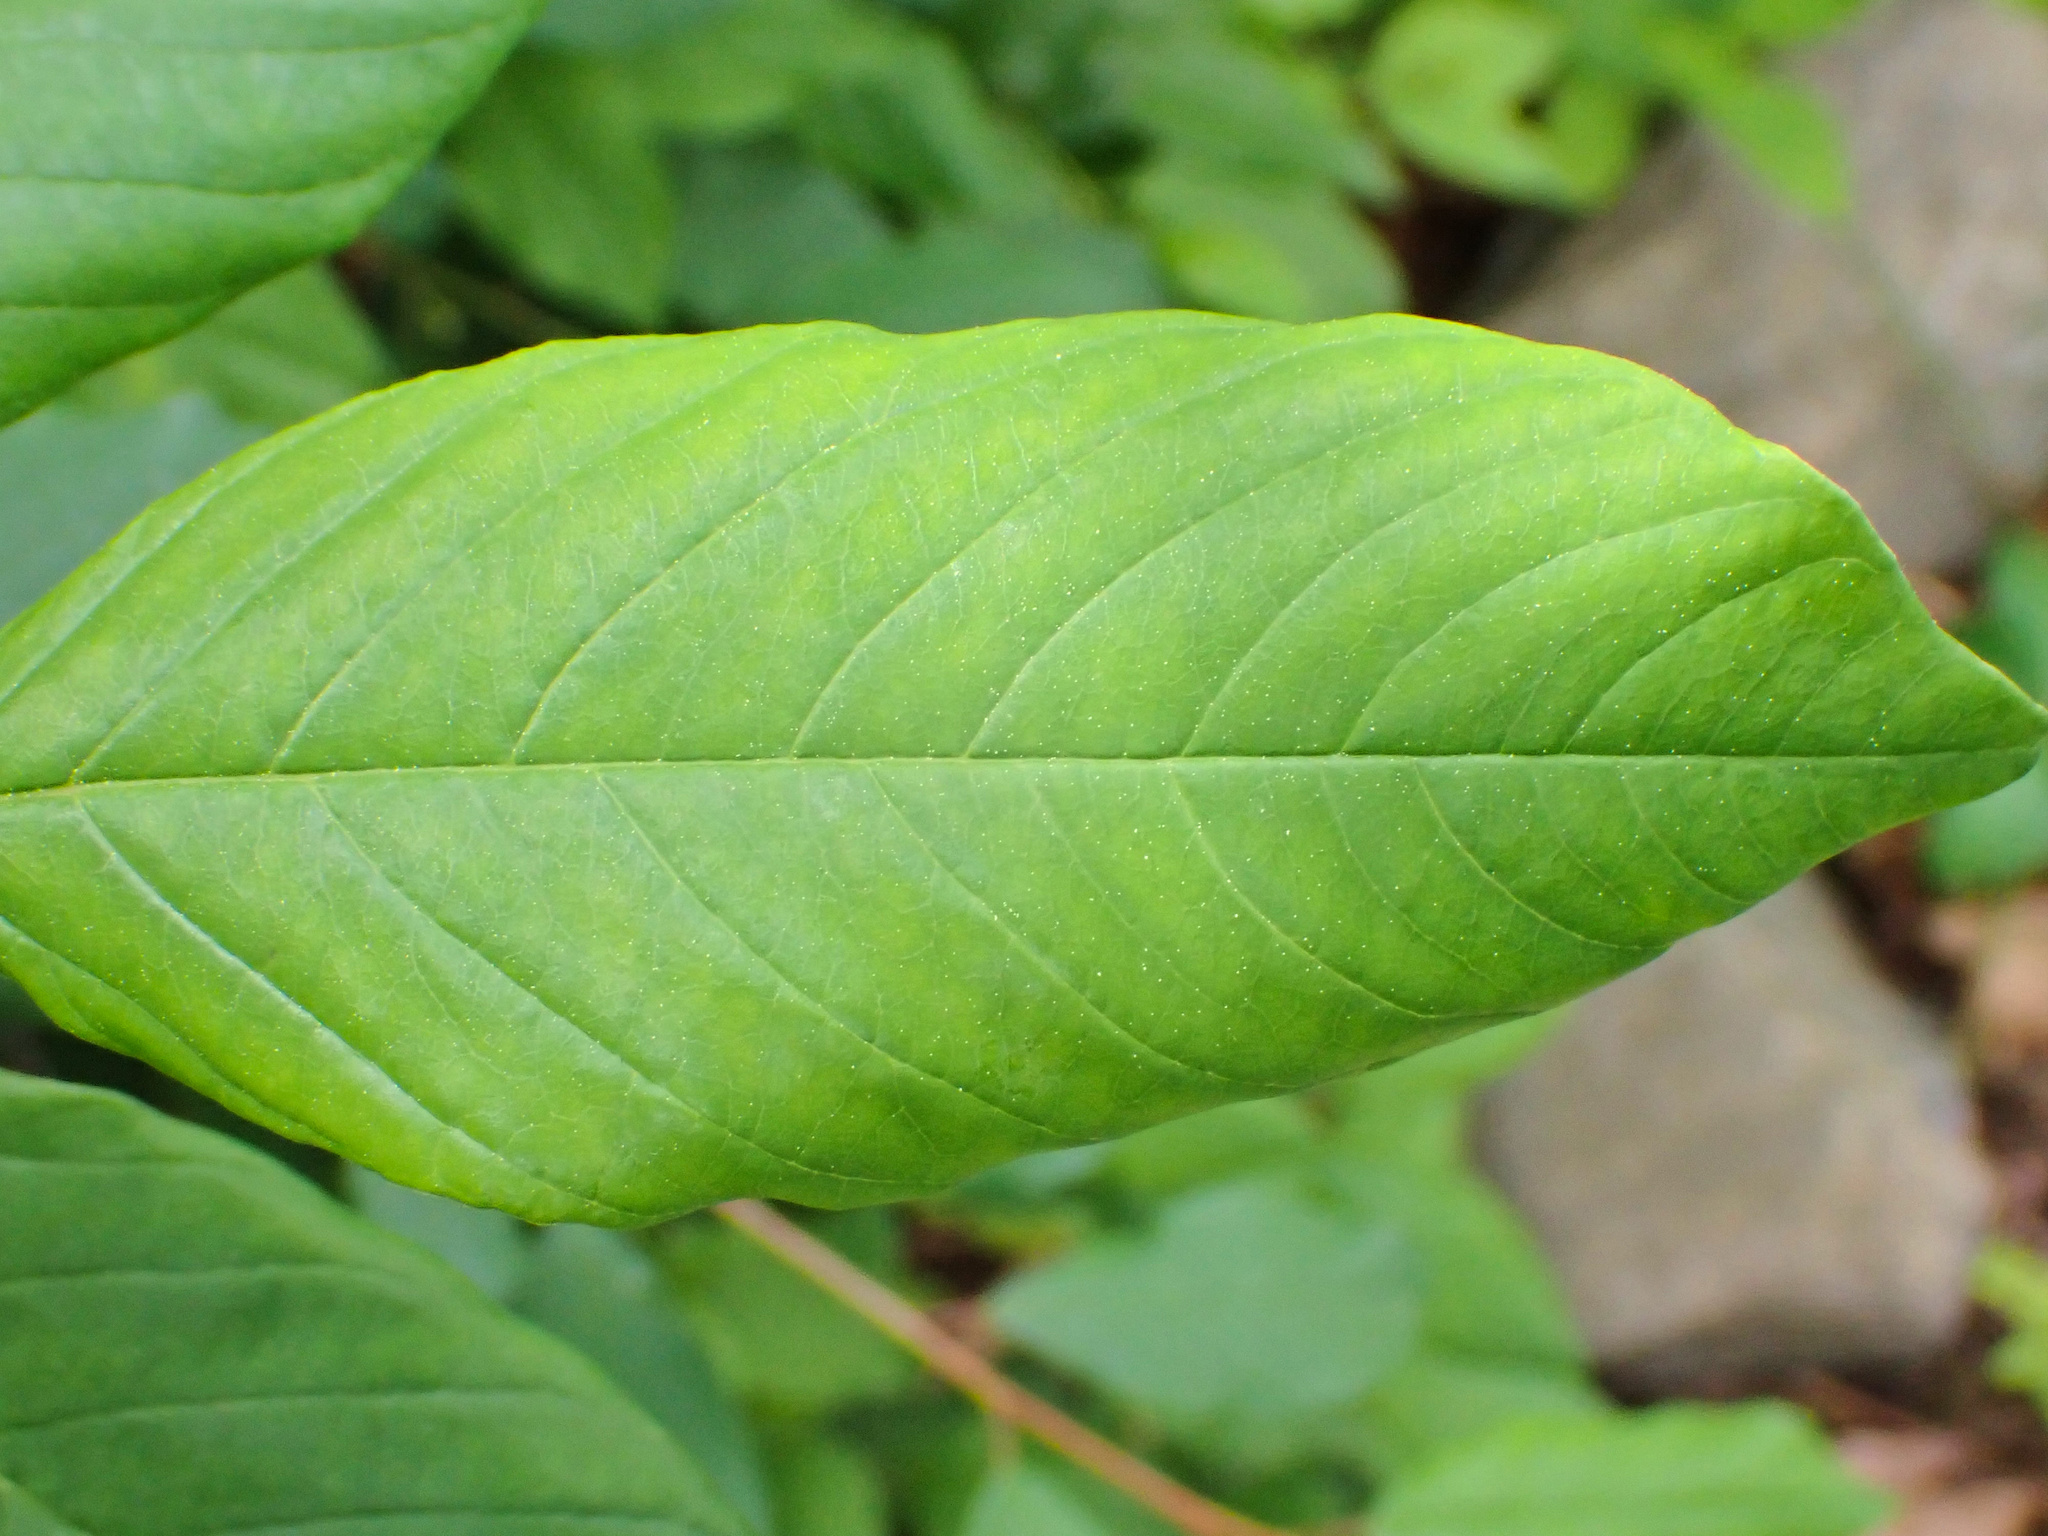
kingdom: Fungi
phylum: Basidiomycota
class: Pucciniomycetes
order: Pucciniales
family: Pucciniaceae
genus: Puccinia
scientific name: Puccinia coronata
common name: Crown rust
